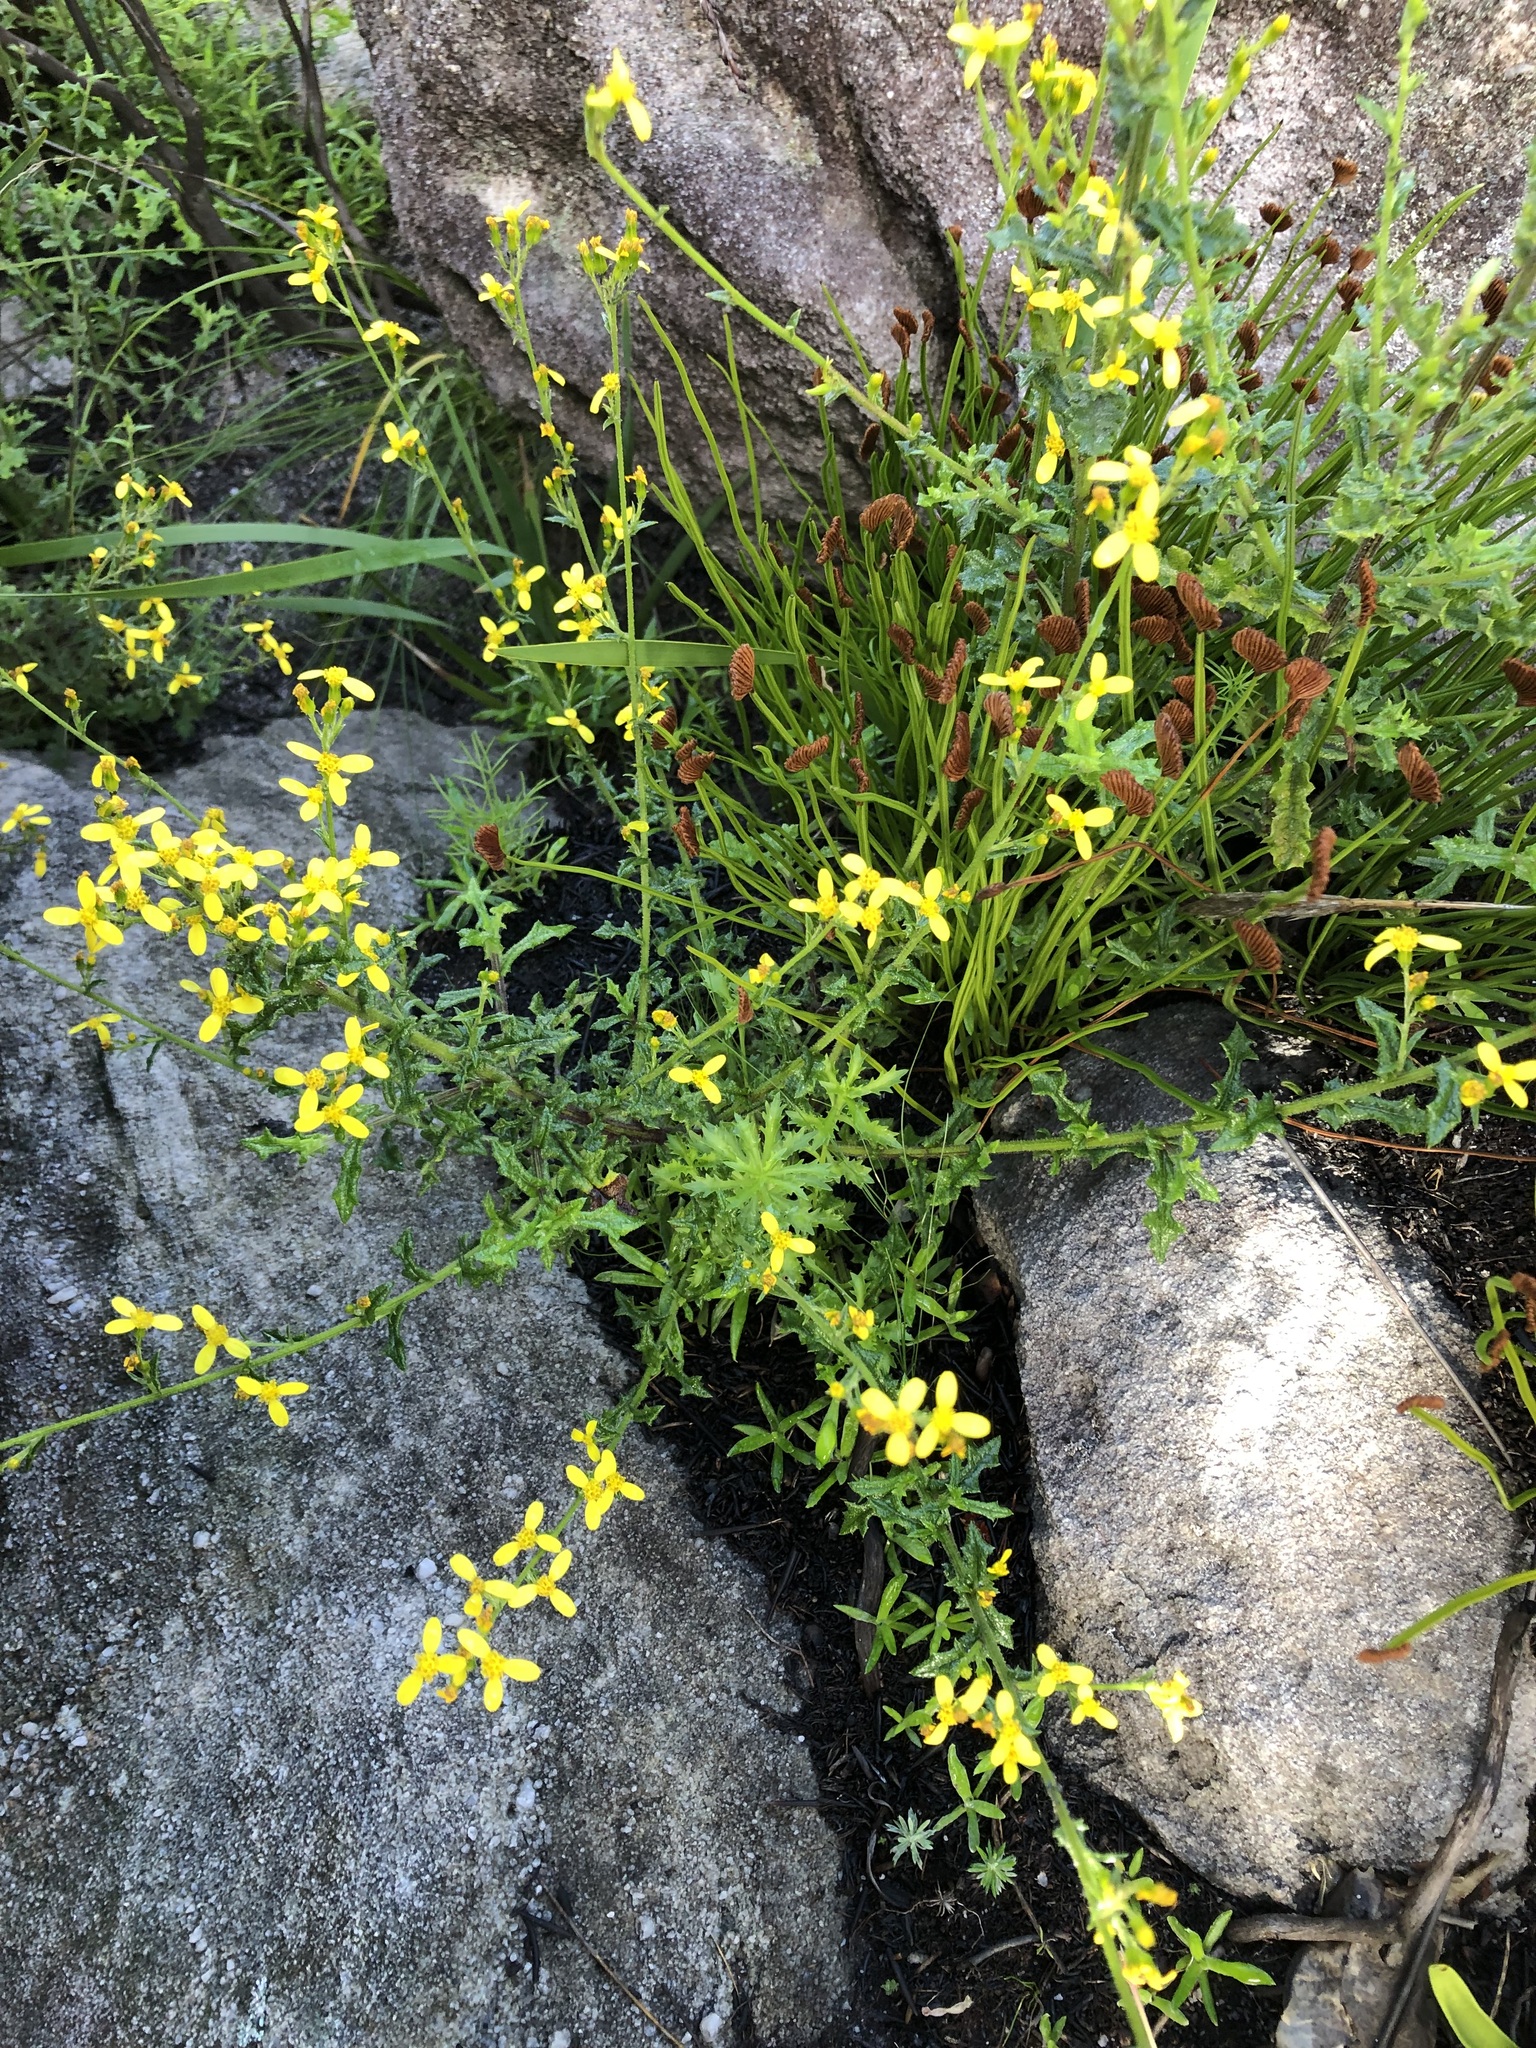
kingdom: Plantae
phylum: Tracheophyta
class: Magnoliopsida
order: Asterales
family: Asteraceae
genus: Osteospermum
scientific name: Osteospermum ciliatum
